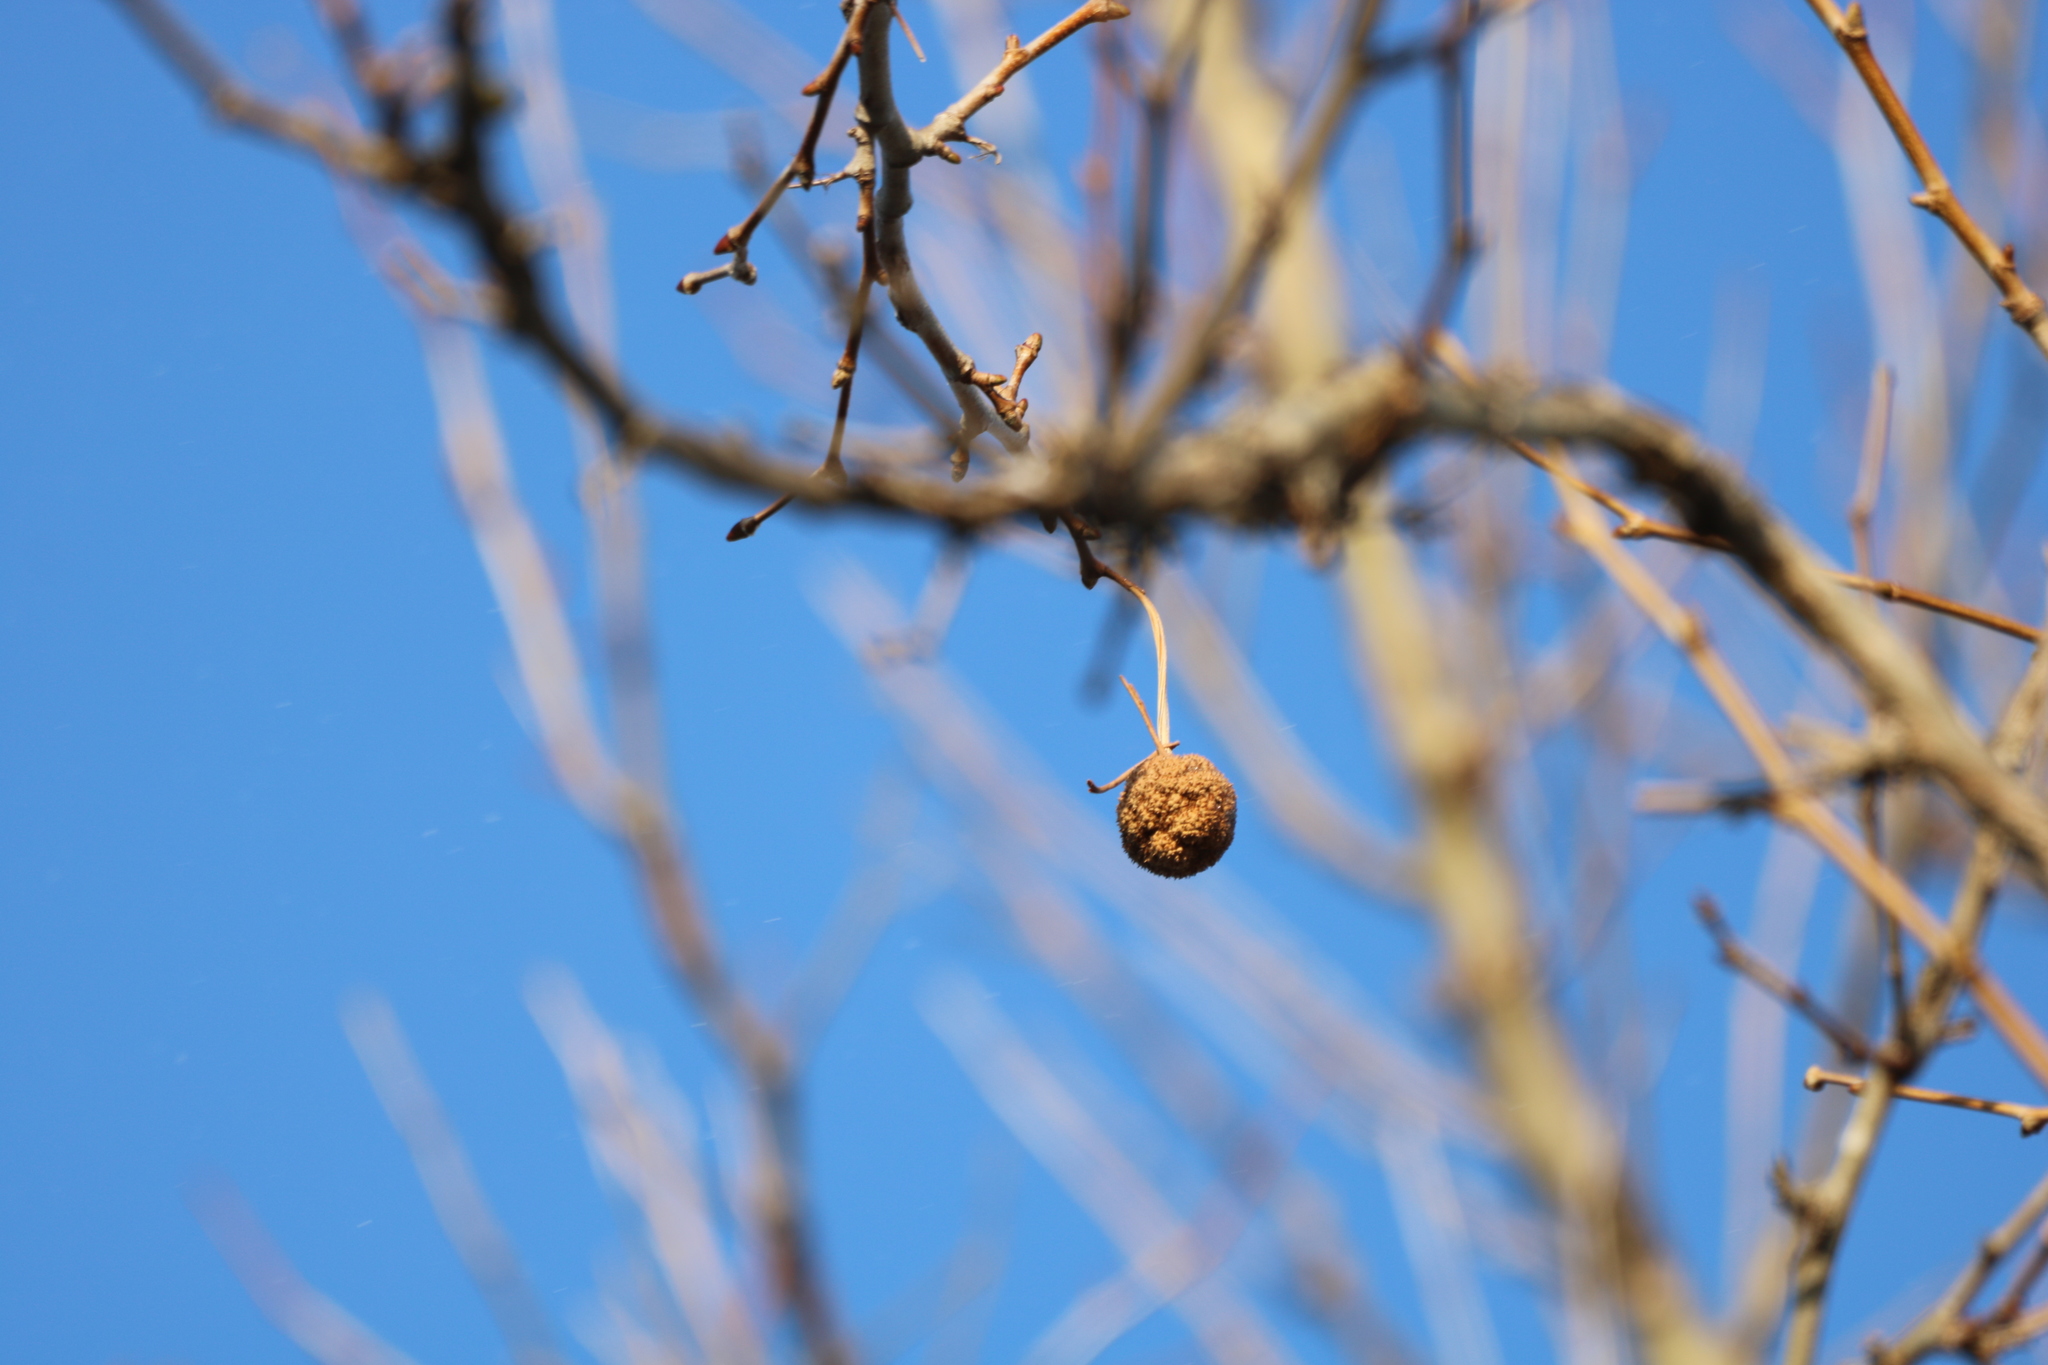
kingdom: Plantae
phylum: Tracheophyta
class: Magnoliopsida
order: Proteales
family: Platanaceae
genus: Platanus
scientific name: Platanus occidentalis
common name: American sycamore
